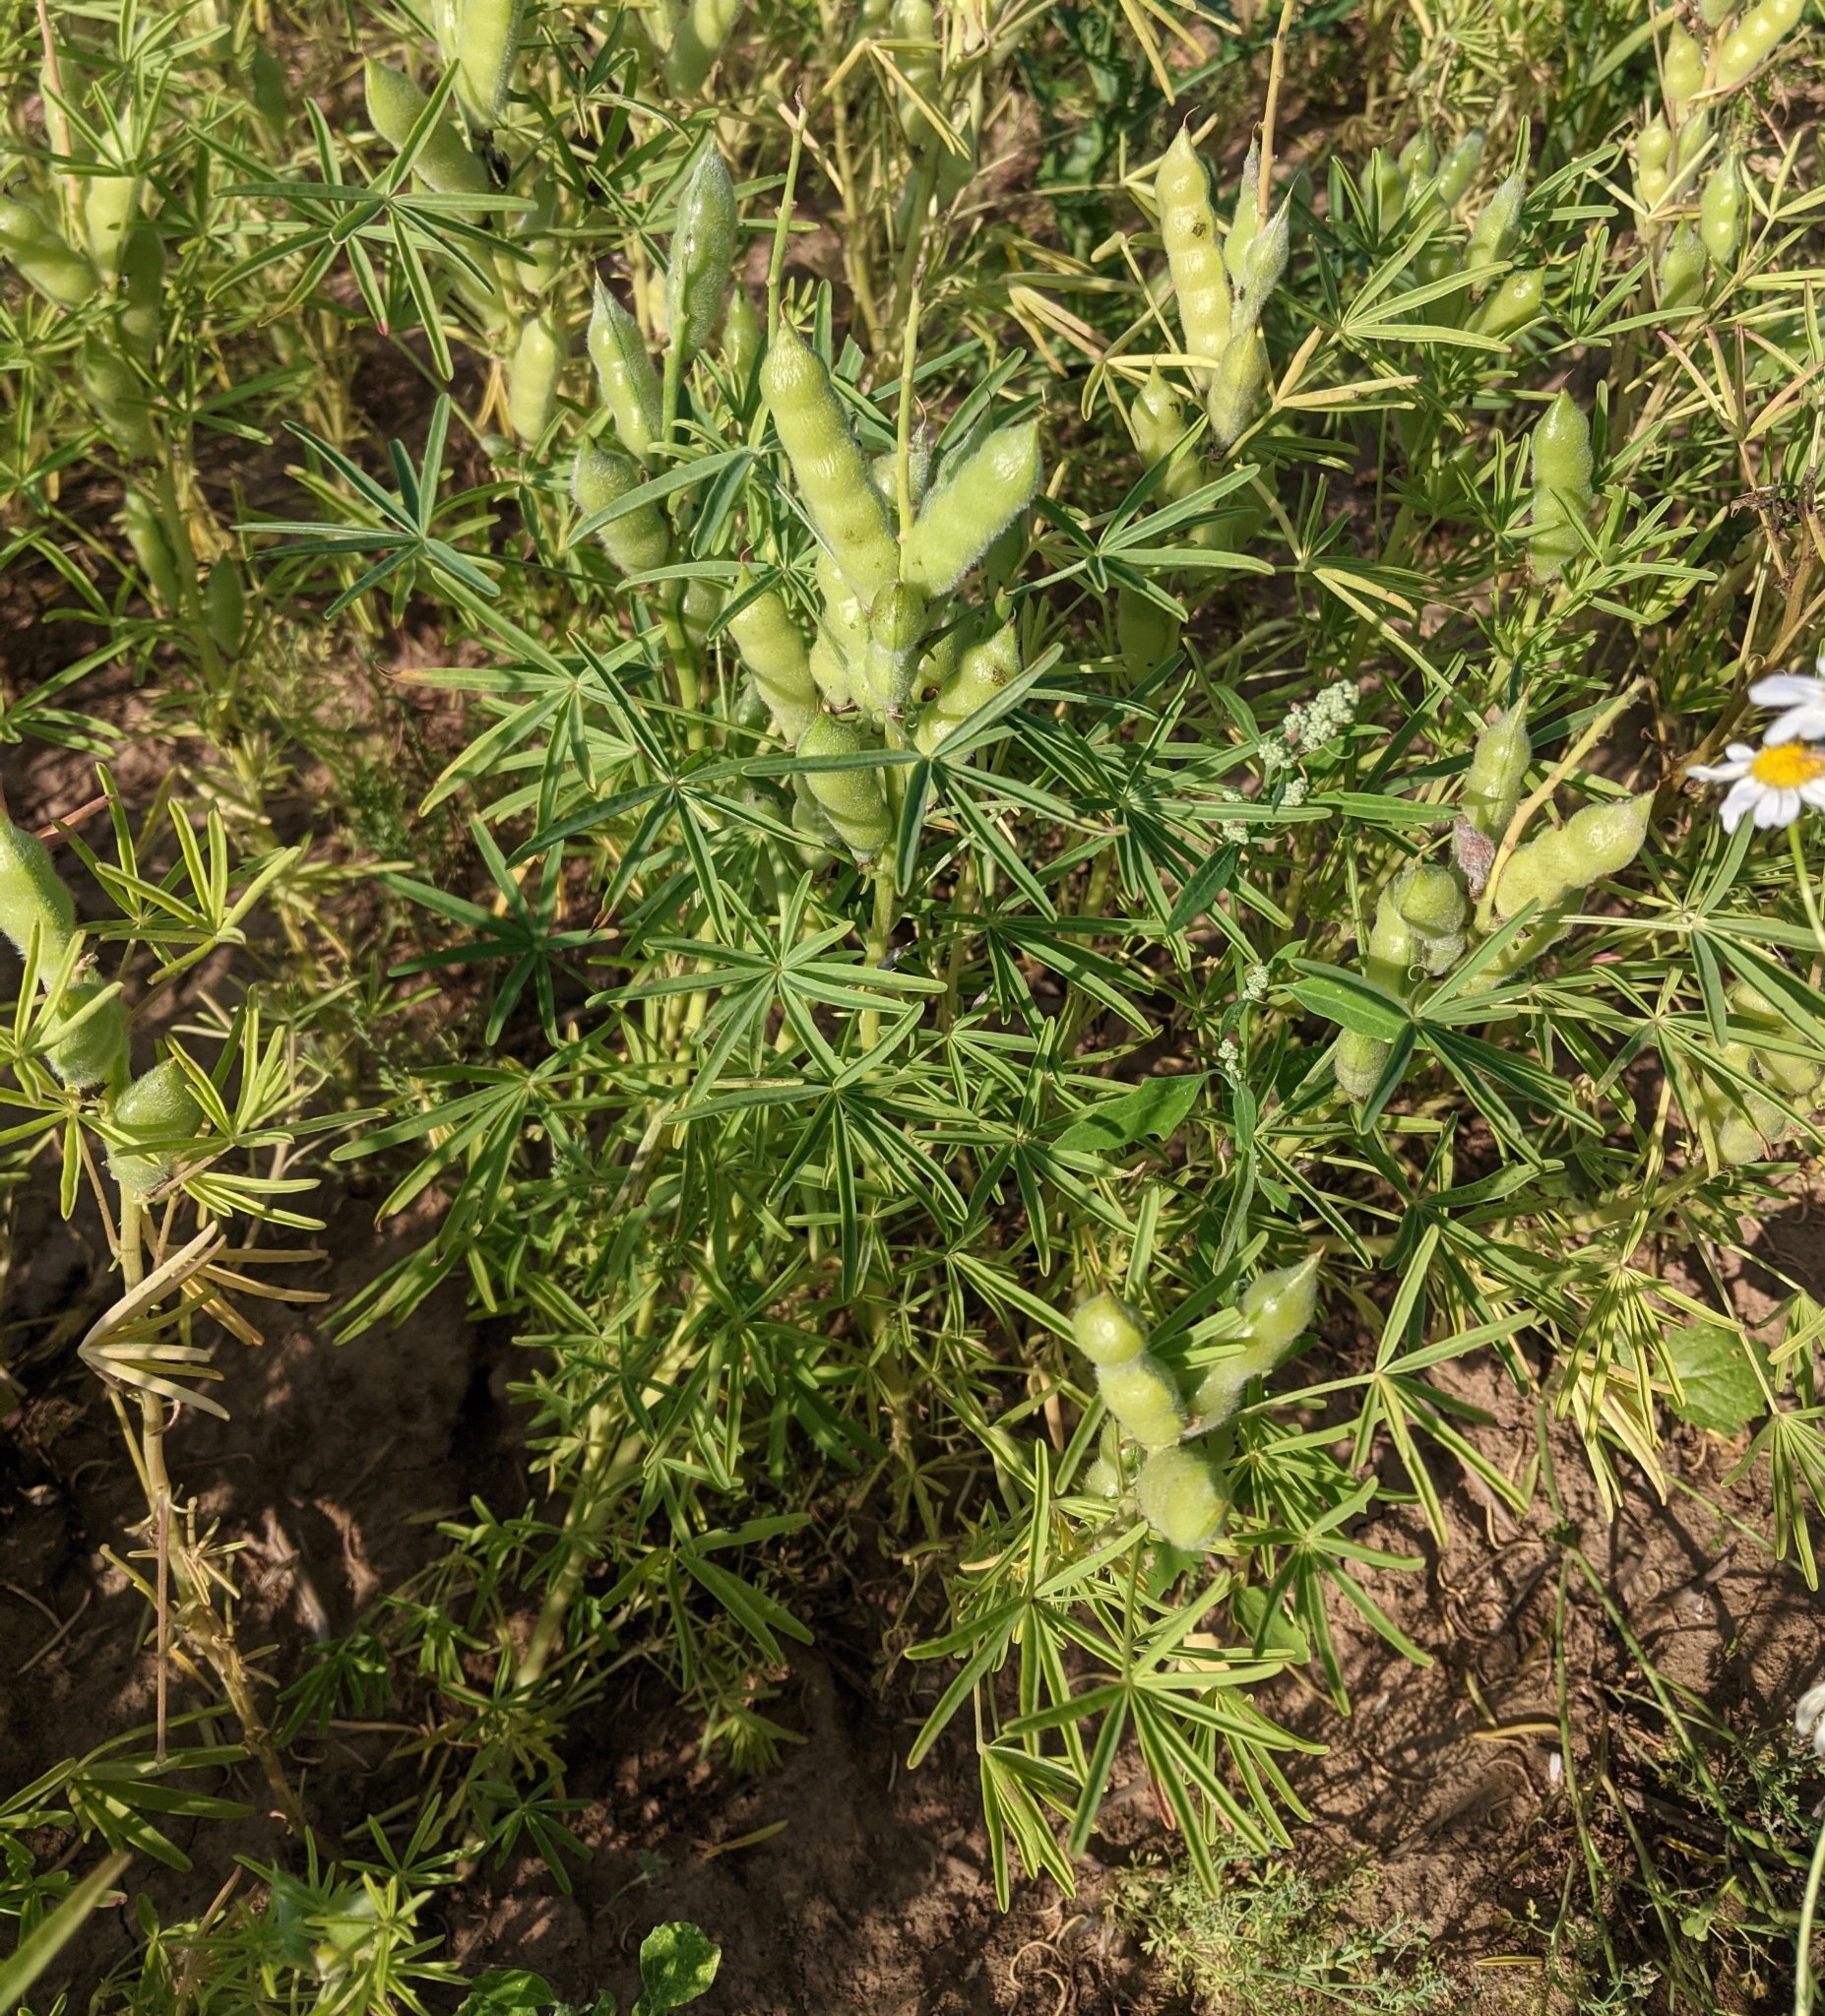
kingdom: Plantae
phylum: Tracheophyta
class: Magnoliopsida
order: Fabales
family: Fabaceae
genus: Lupinus
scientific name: Lupinus angustifolius
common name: Narrow-leaved lupin
